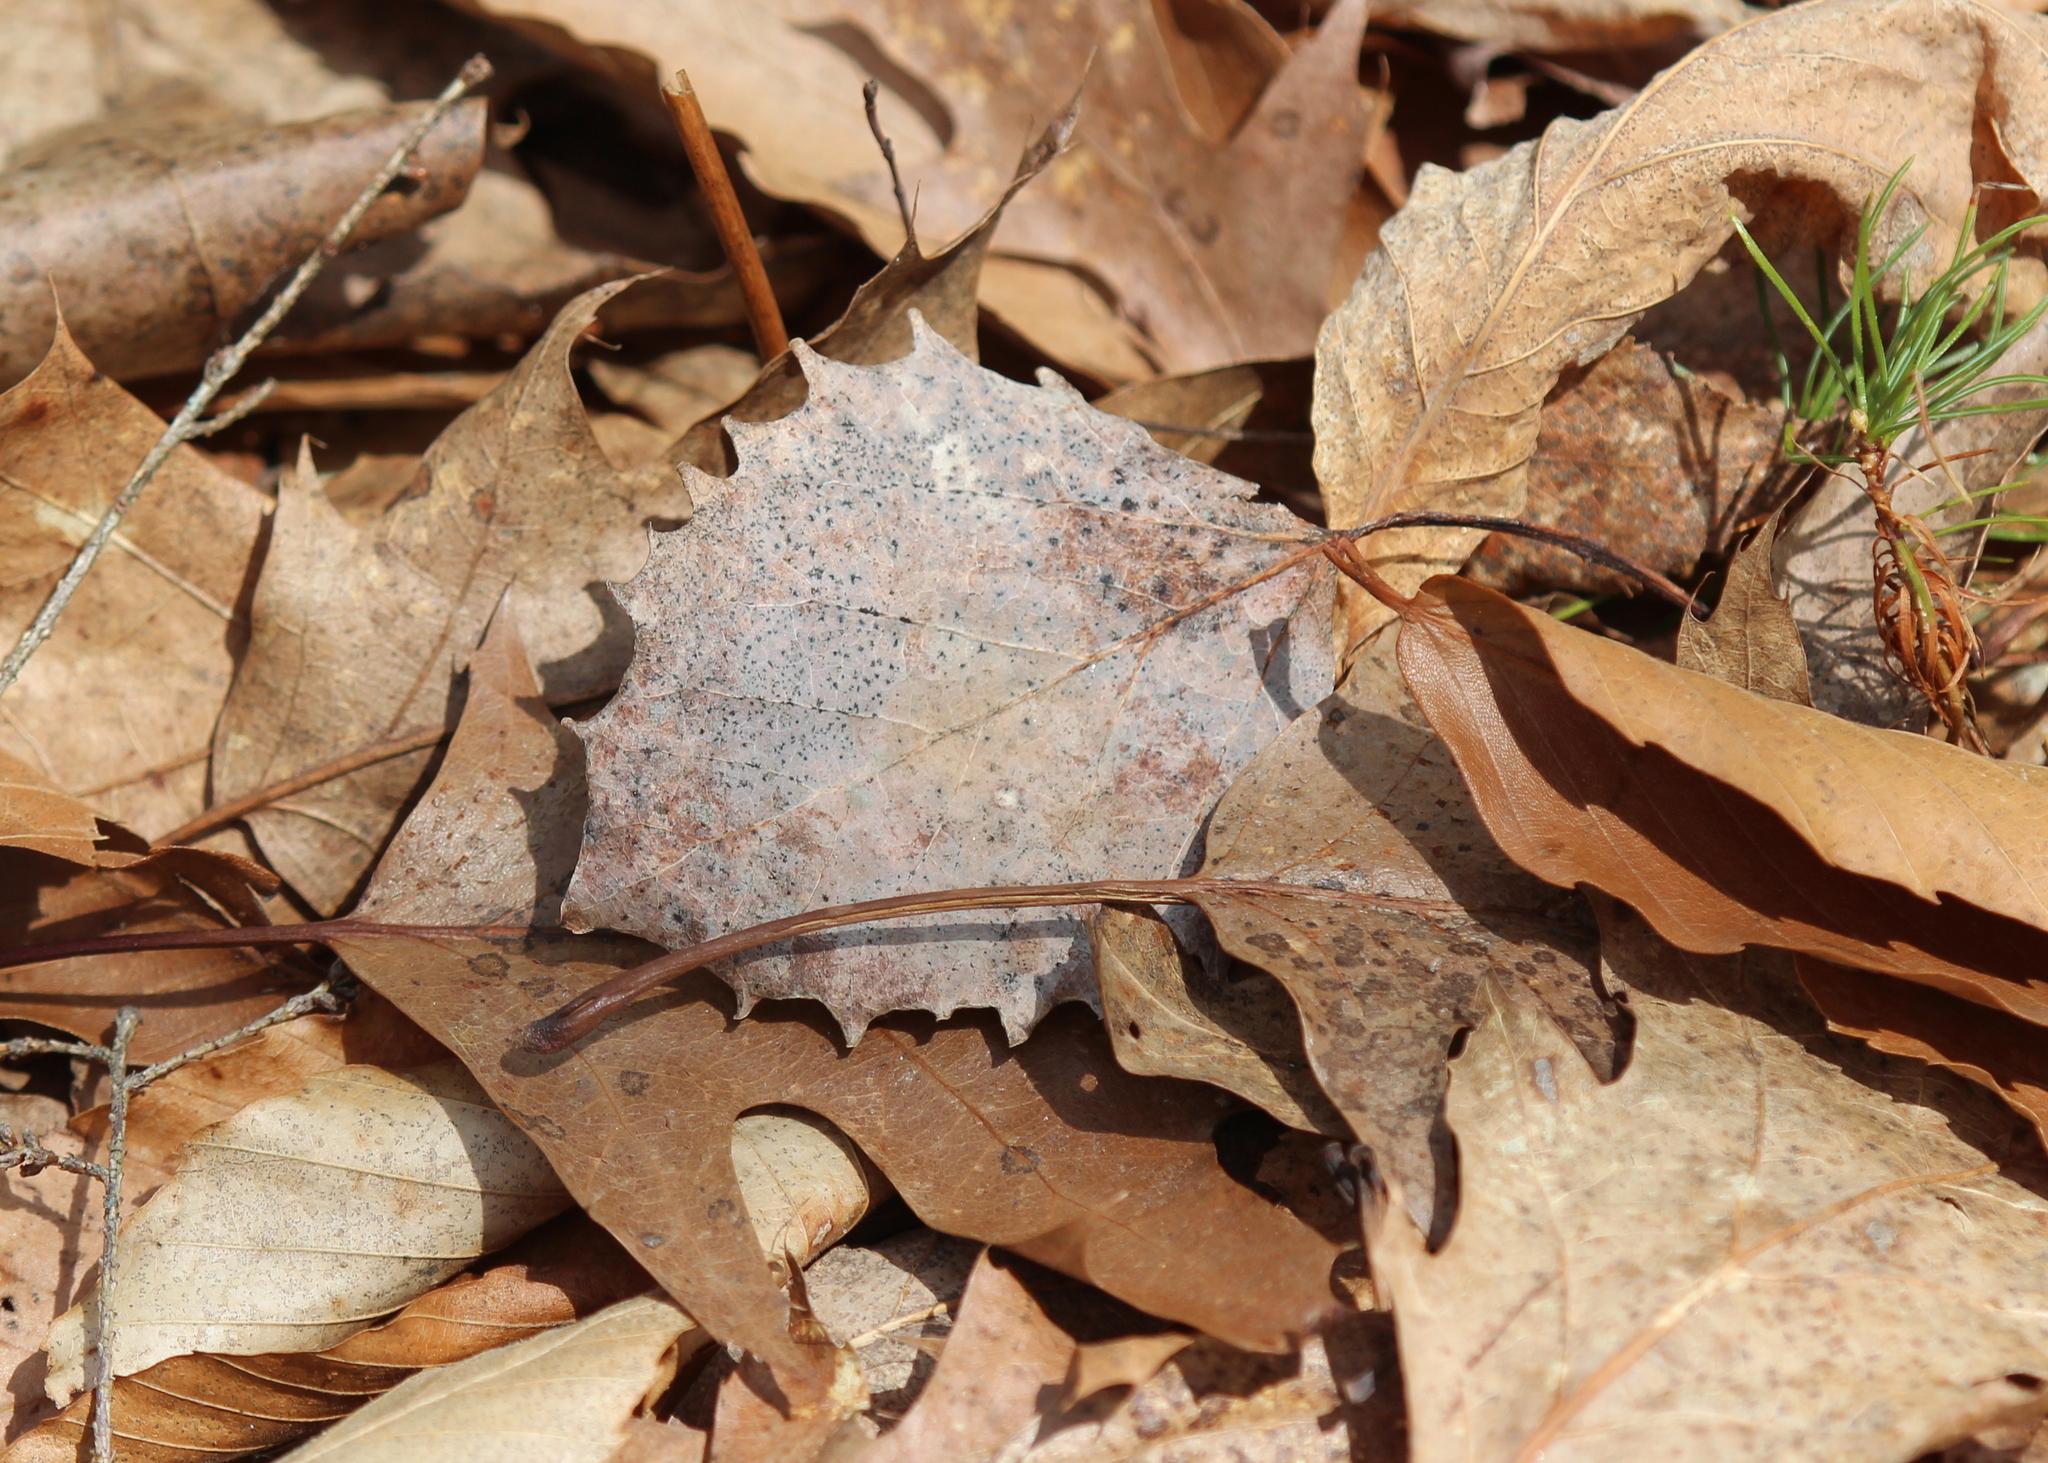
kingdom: Plantae
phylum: Tracheophyta
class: Magnoliopsida
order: Malpighiales
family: Salicaceae
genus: Populus
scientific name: Populus grandidentata
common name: Bigtooth aspen
